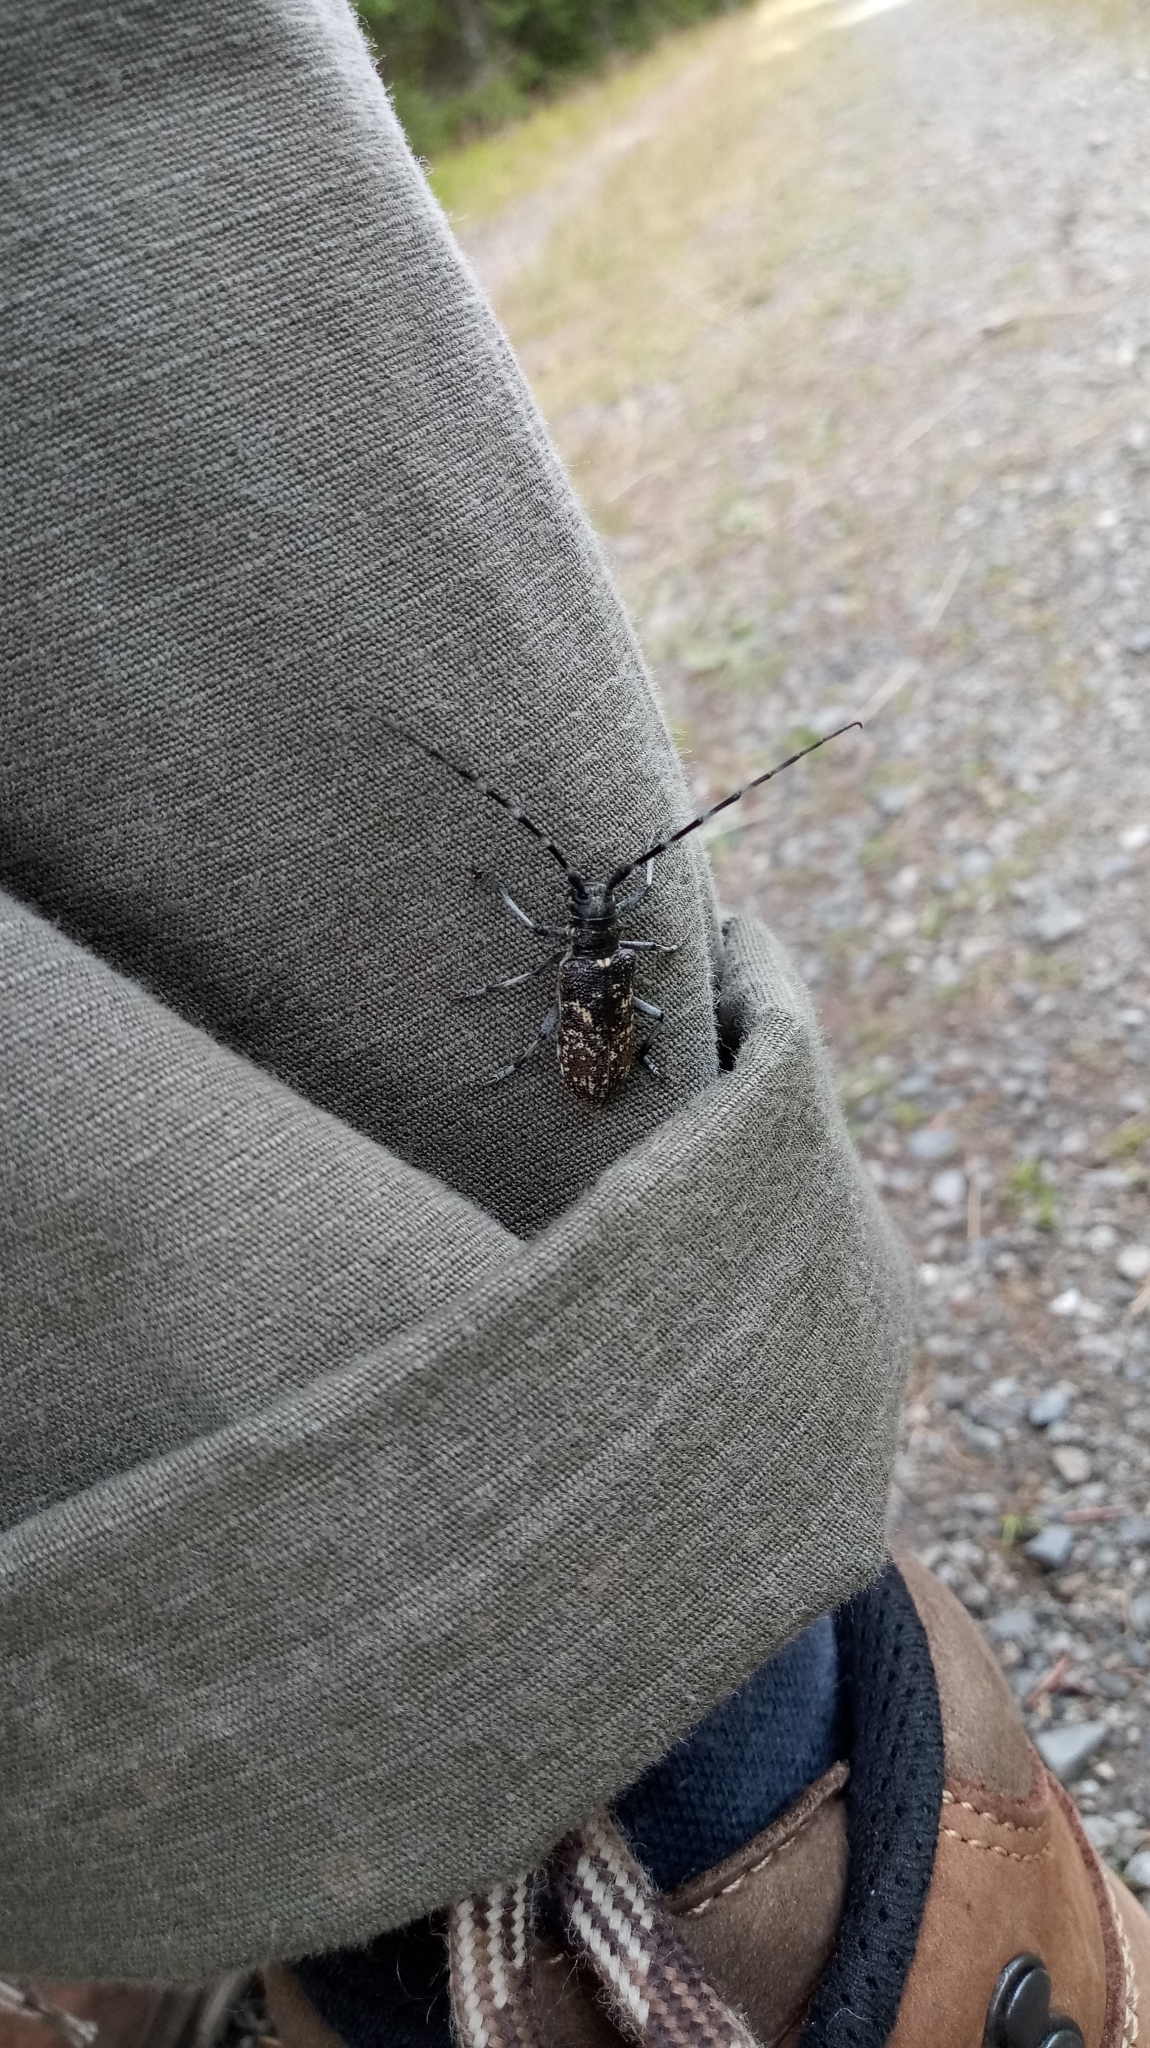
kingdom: Animalia
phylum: Arthropoda
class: Insecta
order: Coleoptera
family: Cerambycidae
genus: Monochamus
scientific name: Monochamus sutor
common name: Pine sawyer
